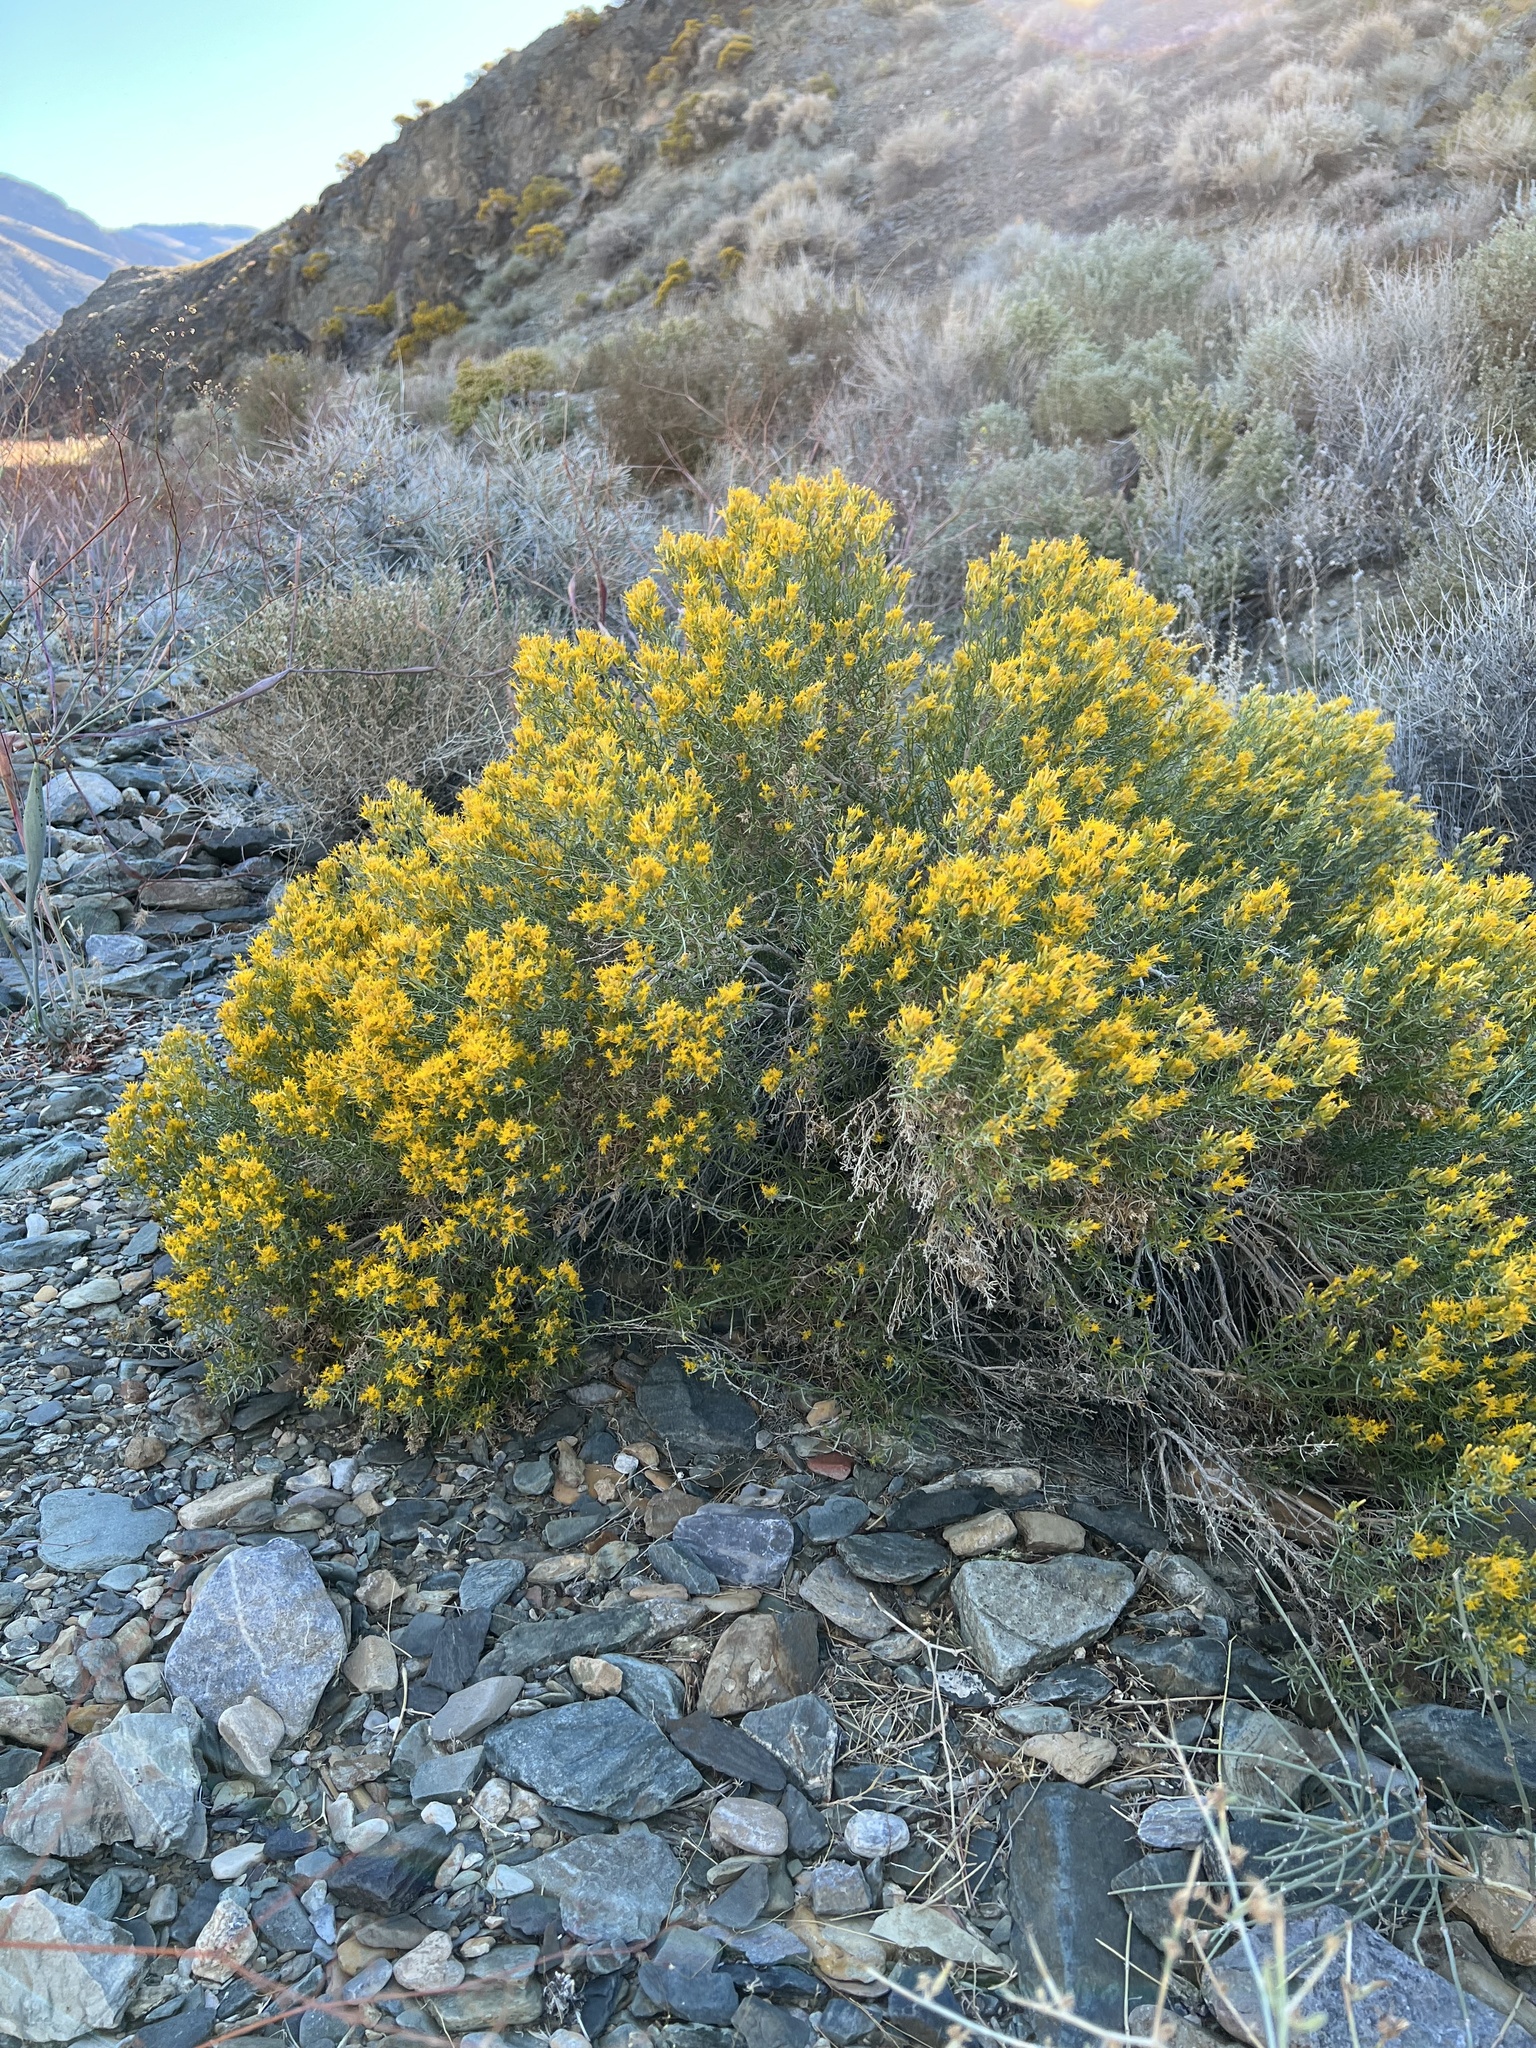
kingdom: Plantae
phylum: Tracheophyta
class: Magnoliopsida
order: Asterales
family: Asteraceae
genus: Ericameria
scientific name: Ericameria teretifolia
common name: Round-leaf rabbitbrush
